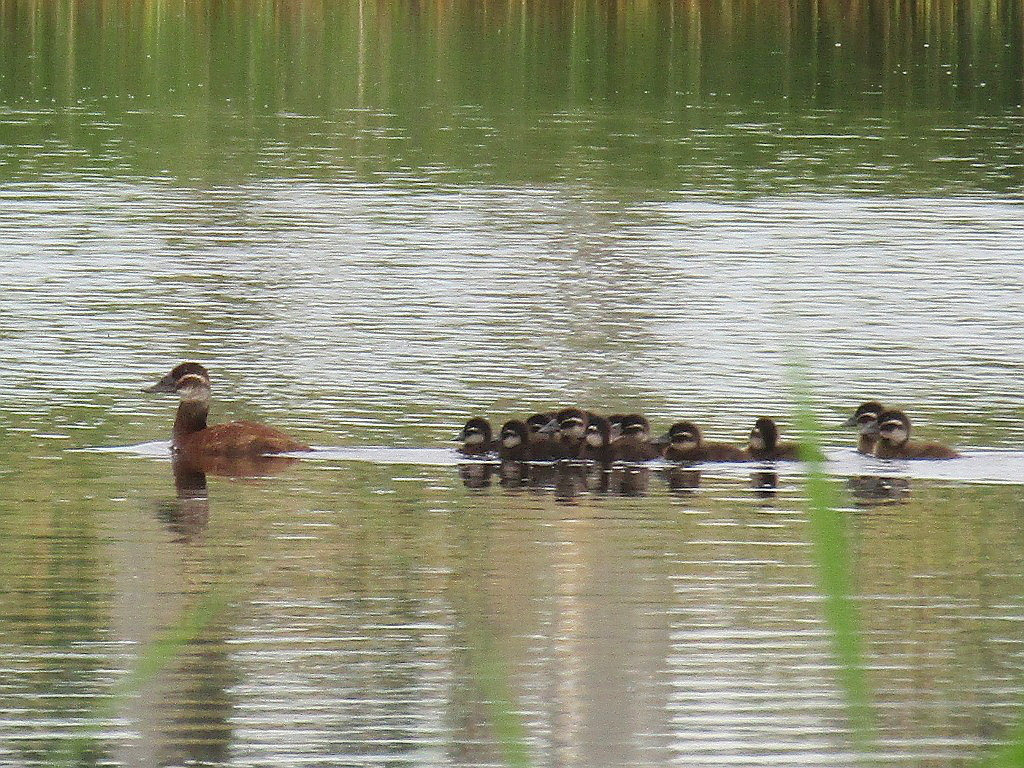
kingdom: Animalia
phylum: Chordata
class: Aves
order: Anseriformes
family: Anatidae
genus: Oxyura
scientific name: Oxyura leucocephala
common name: White-headed duck
